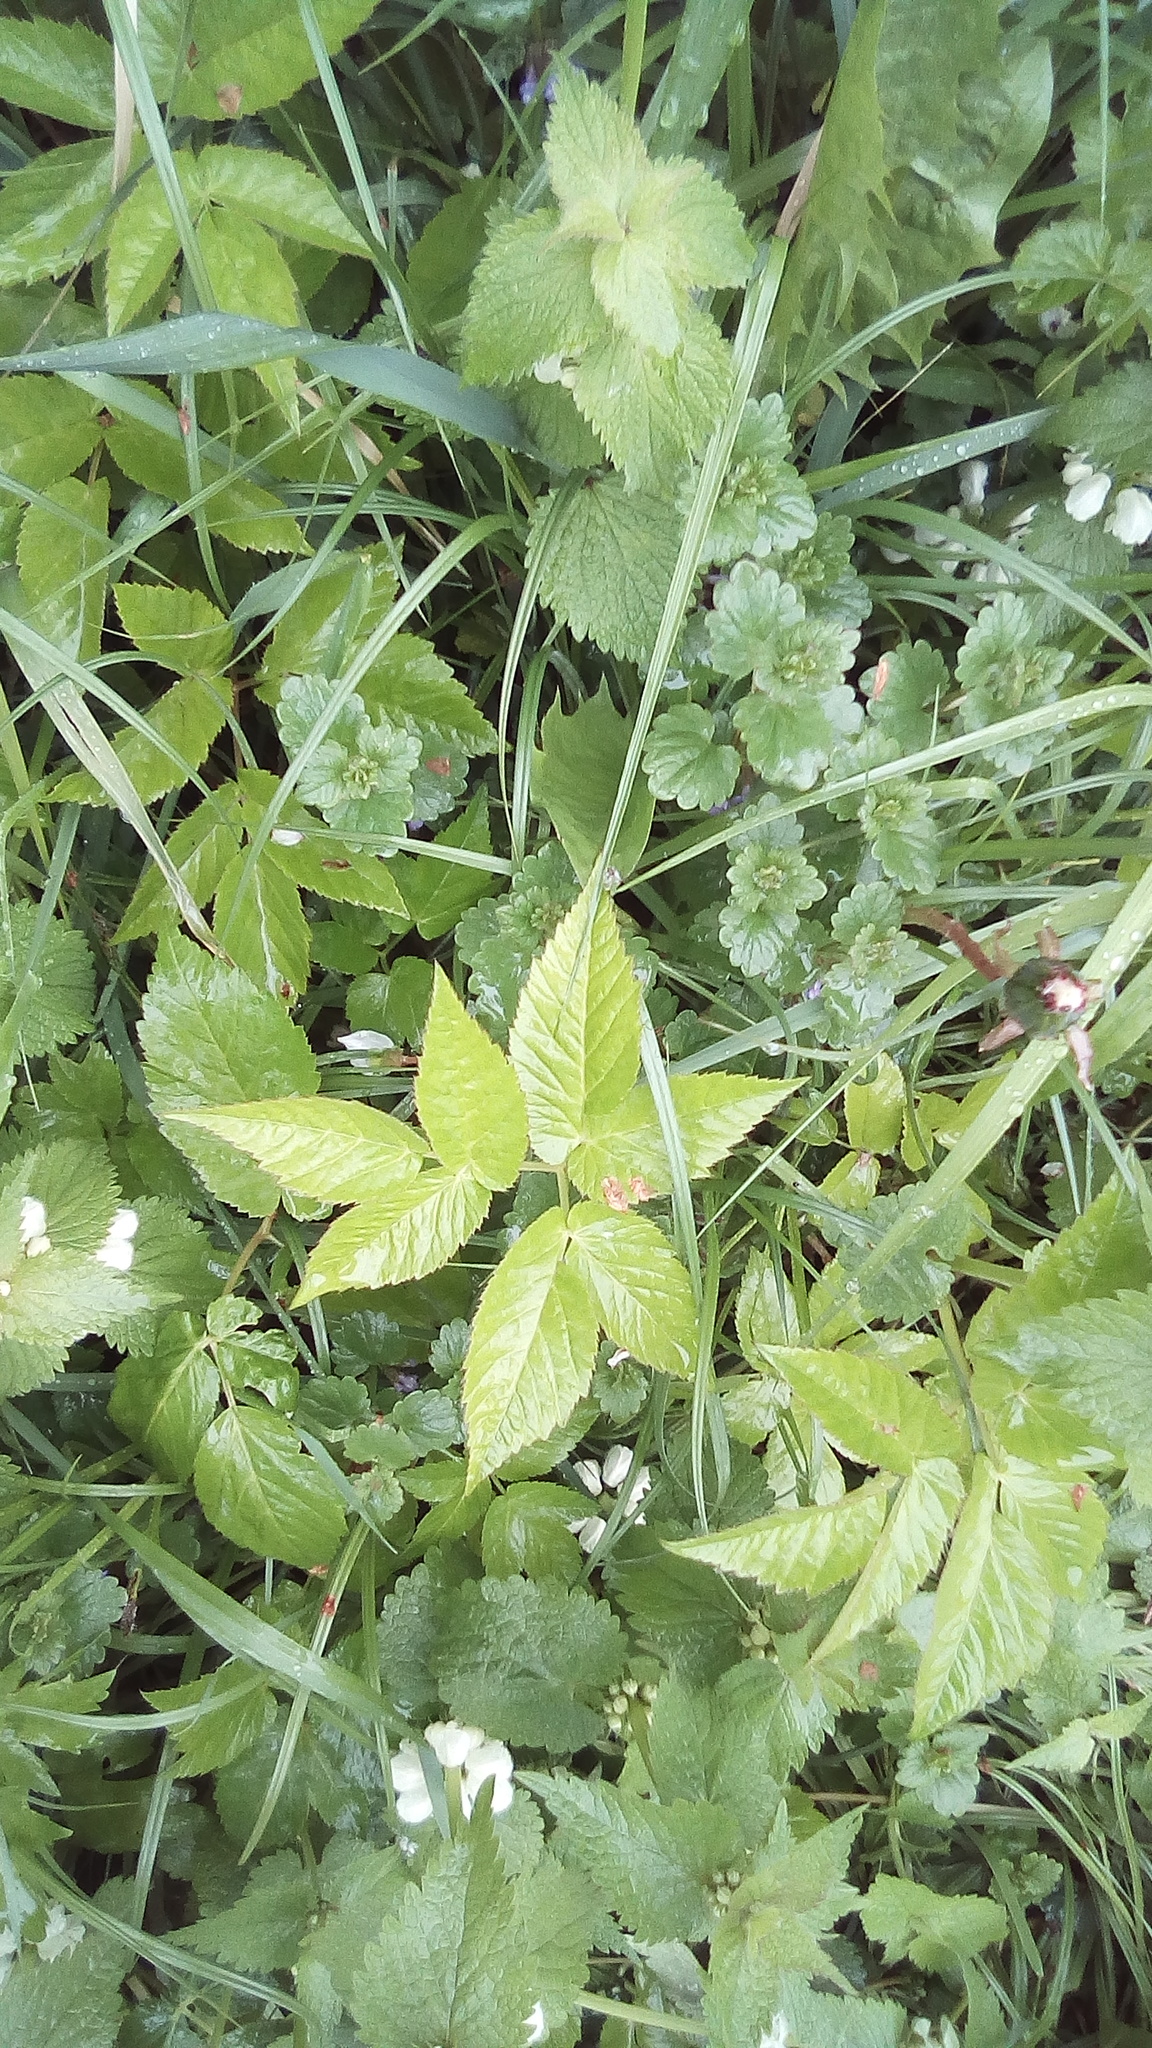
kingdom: Plantae
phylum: Tracheophyta
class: Magnoliopsida
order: Apiales
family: Apiaceae
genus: Aegopodium
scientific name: Aegopodium podagraria
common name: Ground-elder
